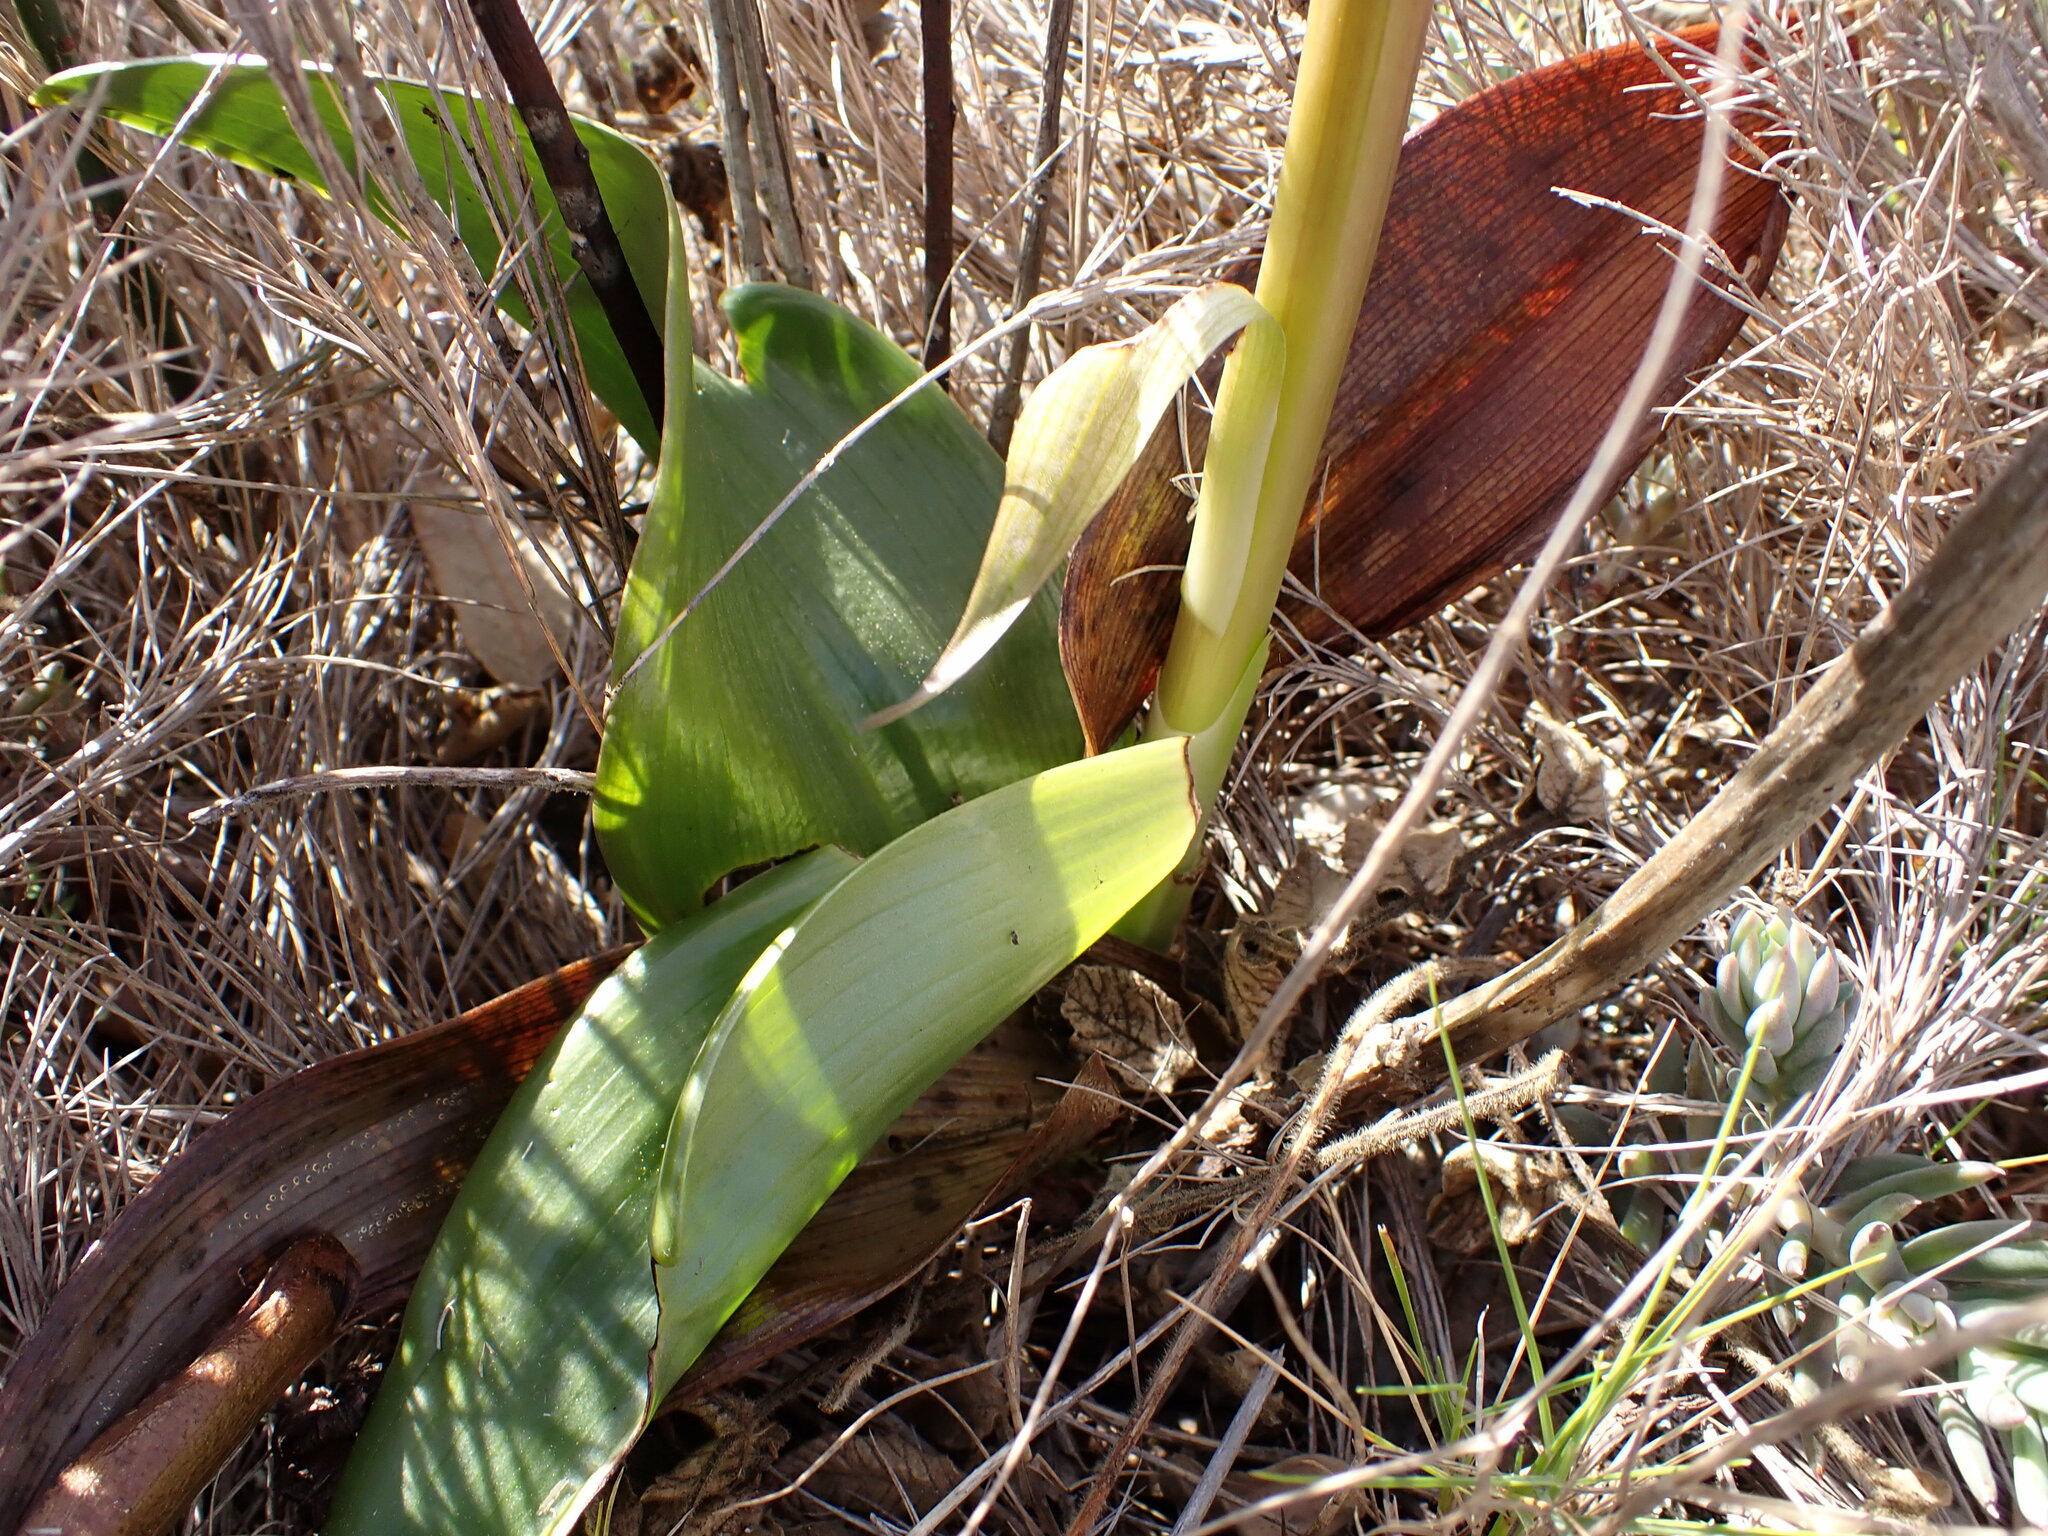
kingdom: Plantae
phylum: Tracheophyta
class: Liliopsida
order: Asparagales
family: Orchidaceae
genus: Himantoglossum
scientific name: Himantoglossum robertianum
